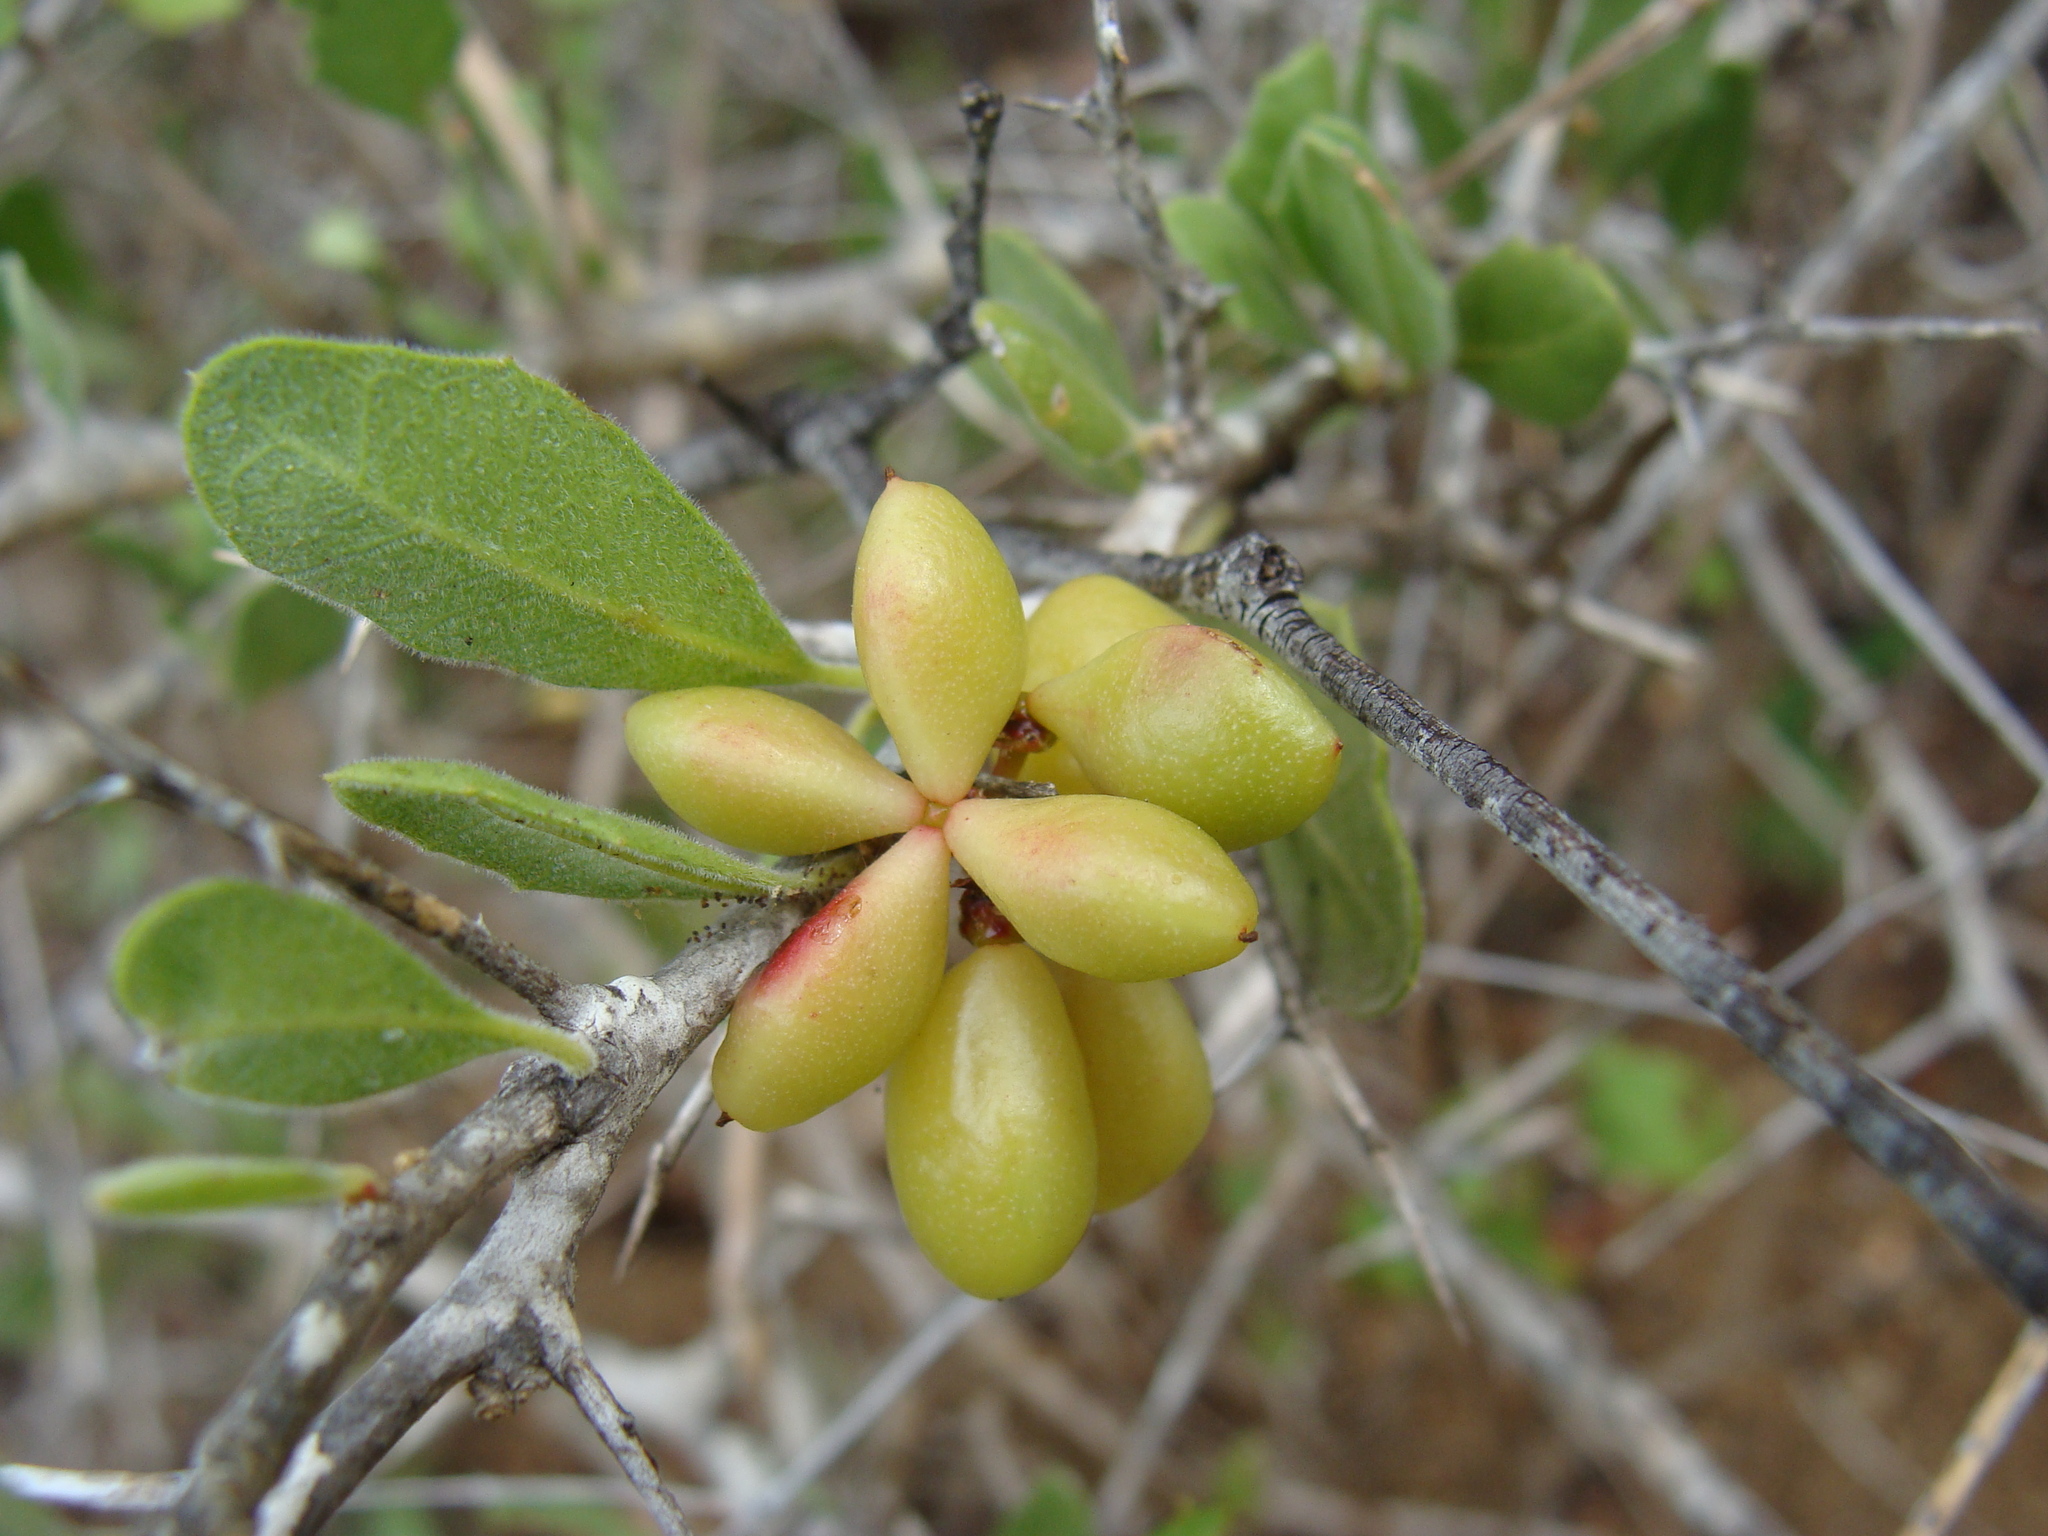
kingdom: Plantae
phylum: Tracheophyta
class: Magnoliopsida
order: Sapindales
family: Simaroubaceae
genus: Castela
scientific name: Castela peninsularis
